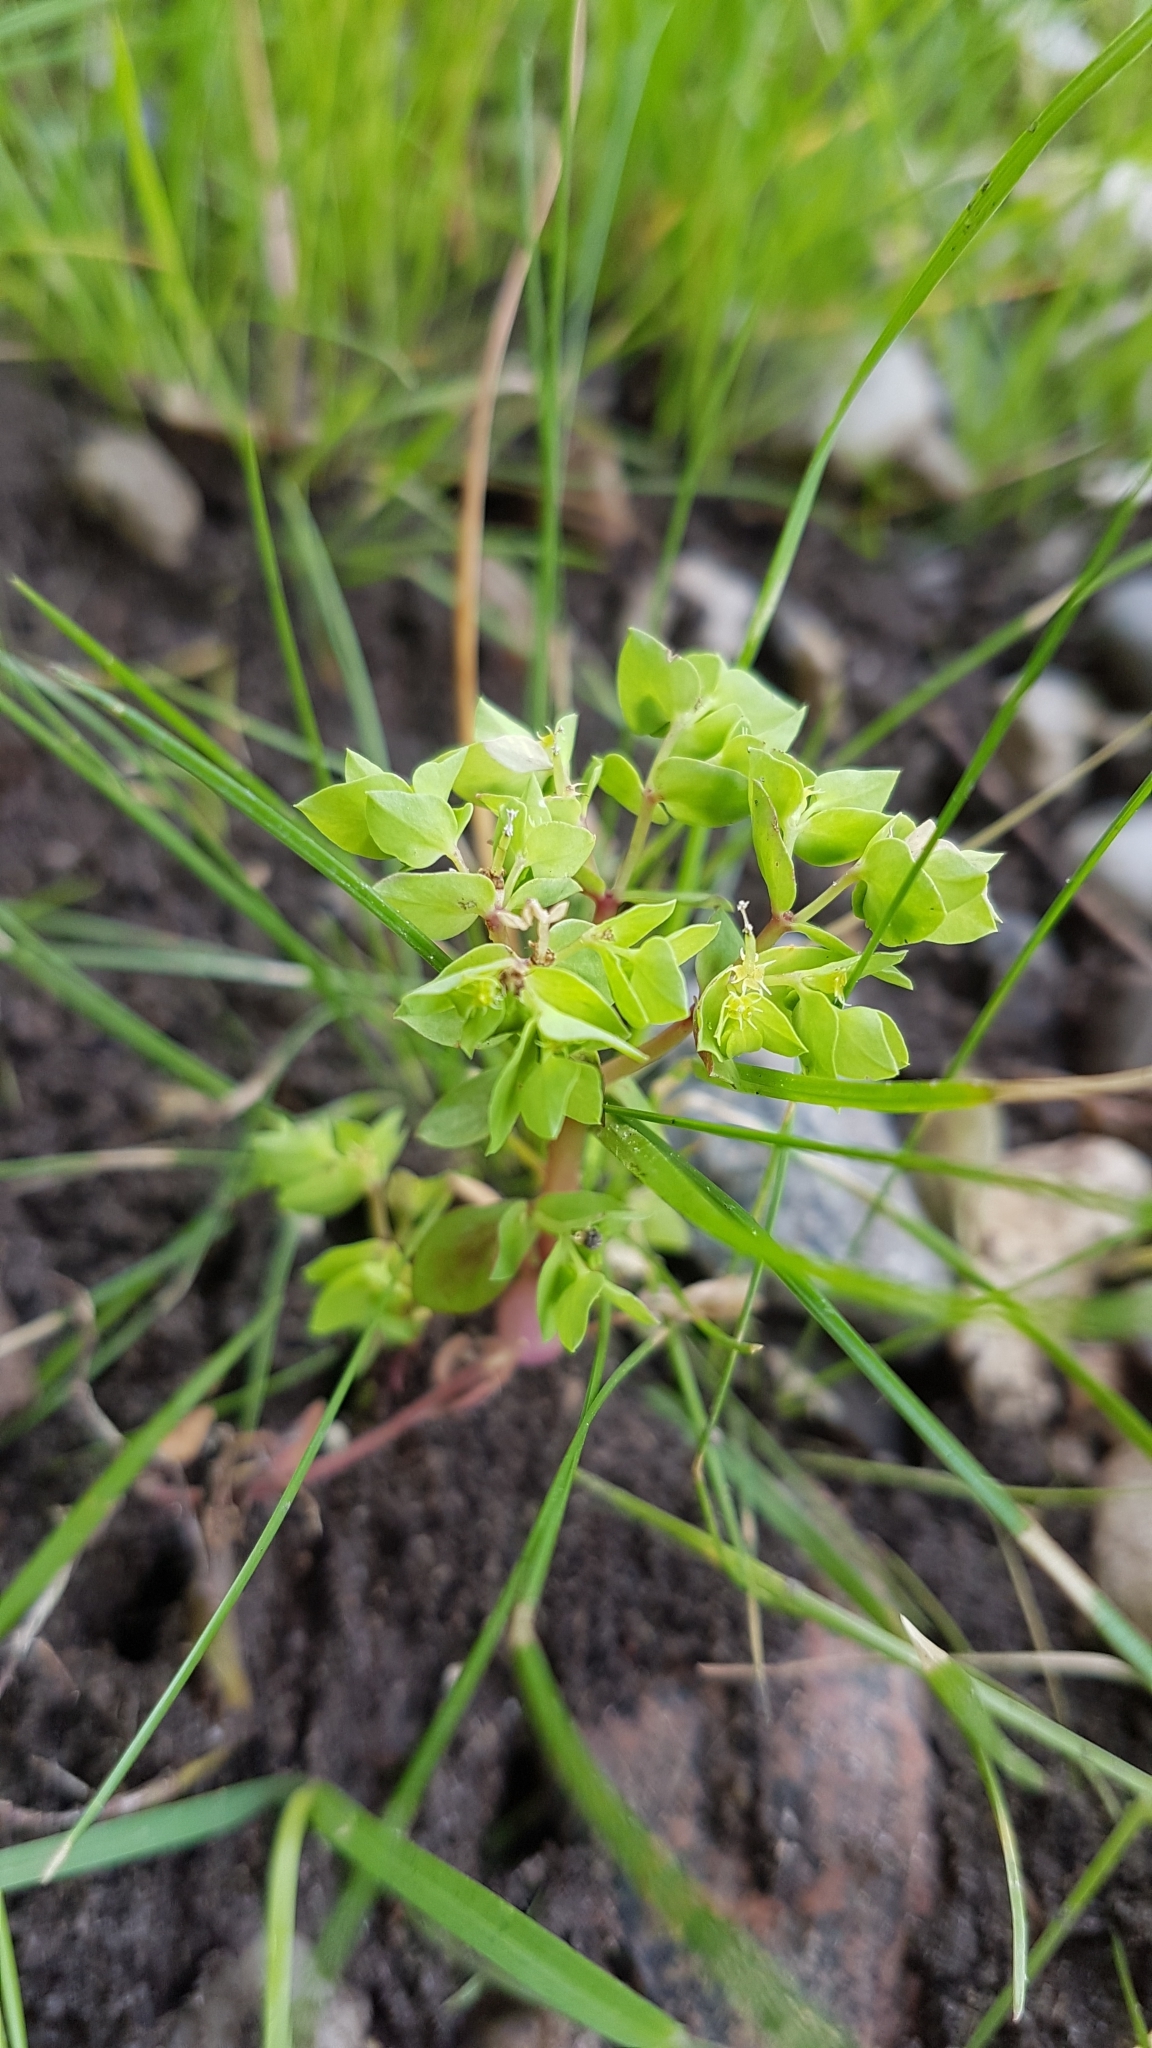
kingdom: Plantae
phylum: Tracheophyta
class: Magnoliopsida
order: Malpighiales
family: Euphorbiaceae
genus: Euphorbia
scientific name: Euphorbia peplus
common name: Petty spurge
